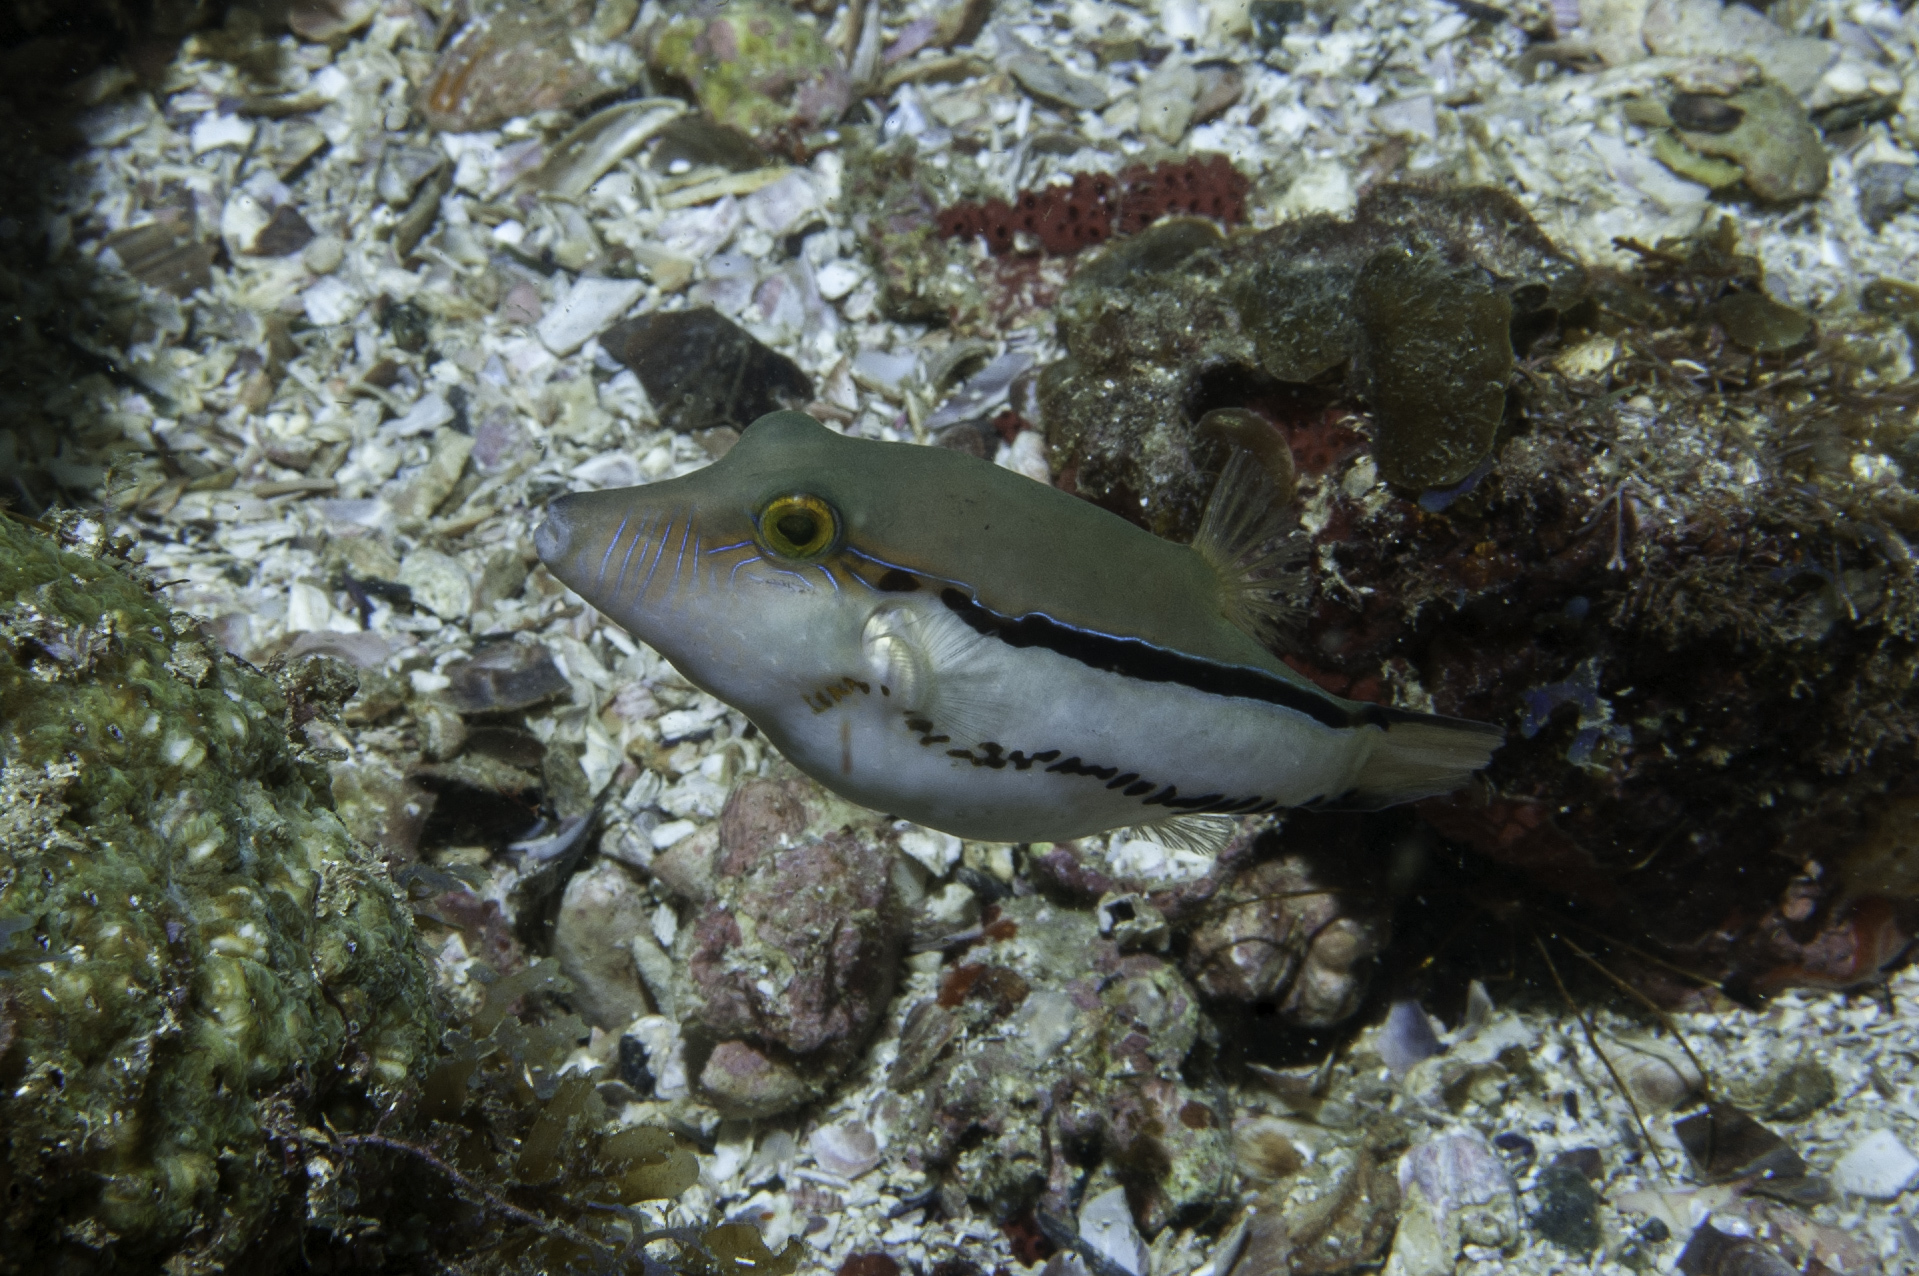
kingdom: Animalia
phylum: Chordata
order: Tetraodontiformes
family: Tetraodontidae
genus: Canthigaster
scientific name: Canthigaster figueiredoi
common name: Southern atlantic sharpnose-puffer
